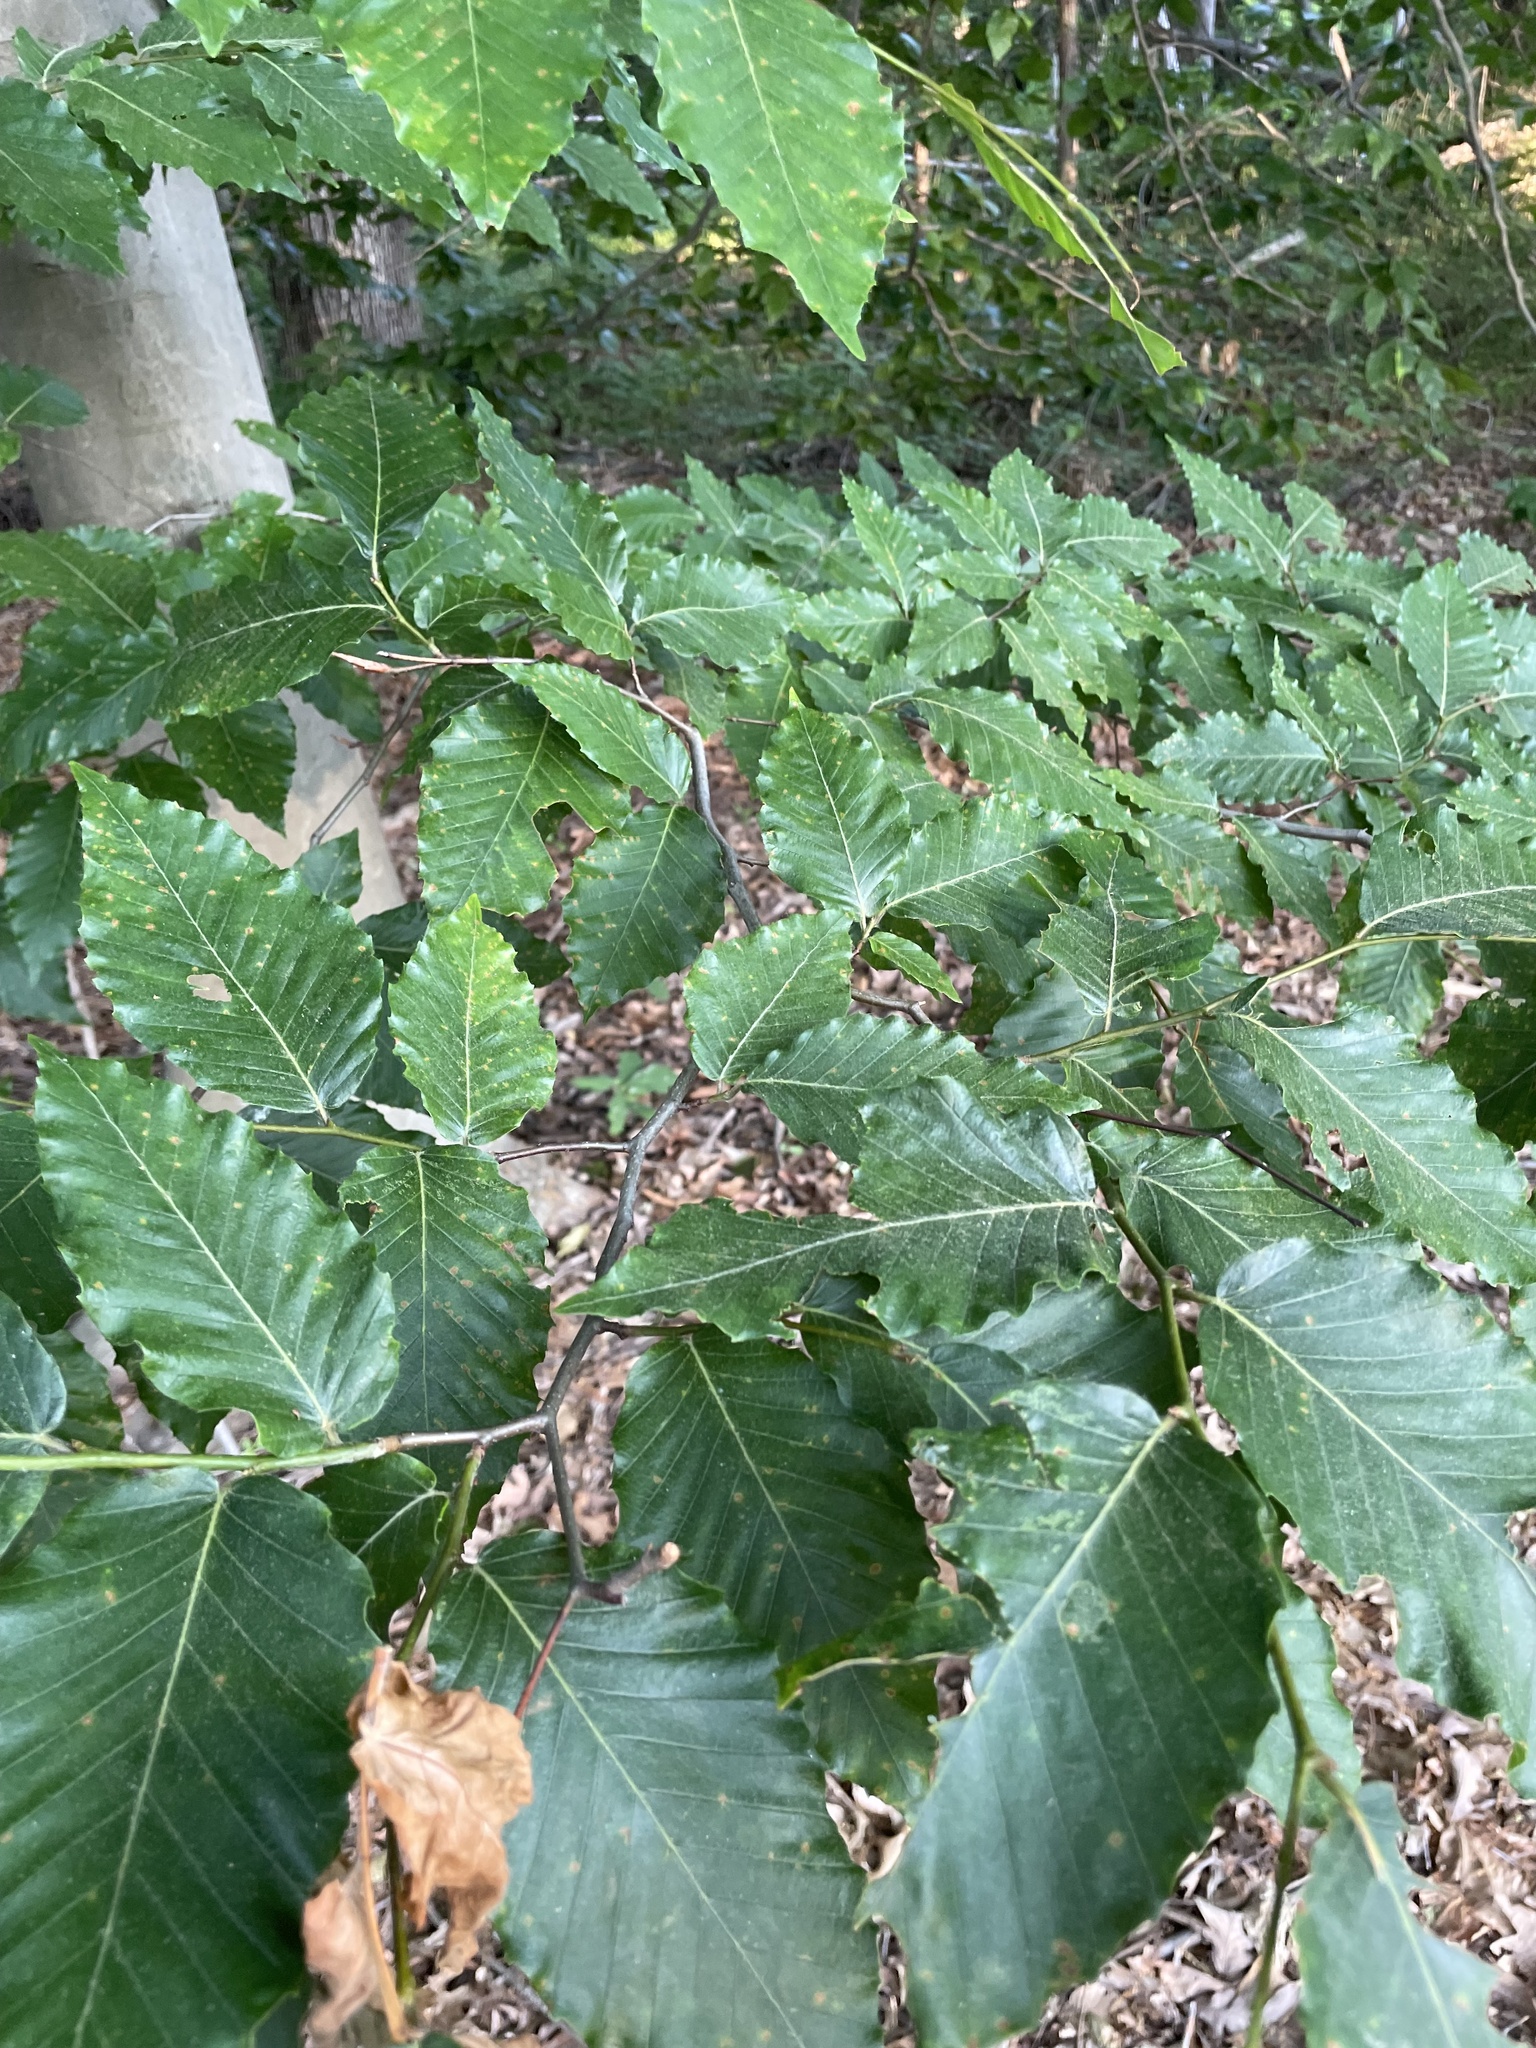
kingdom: Plantae
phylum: Tracheophyta
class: Magnoliopsida
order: Fagales
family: Fagaceae
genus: Fagus
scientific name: Fagus grandifolia
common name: American beech
